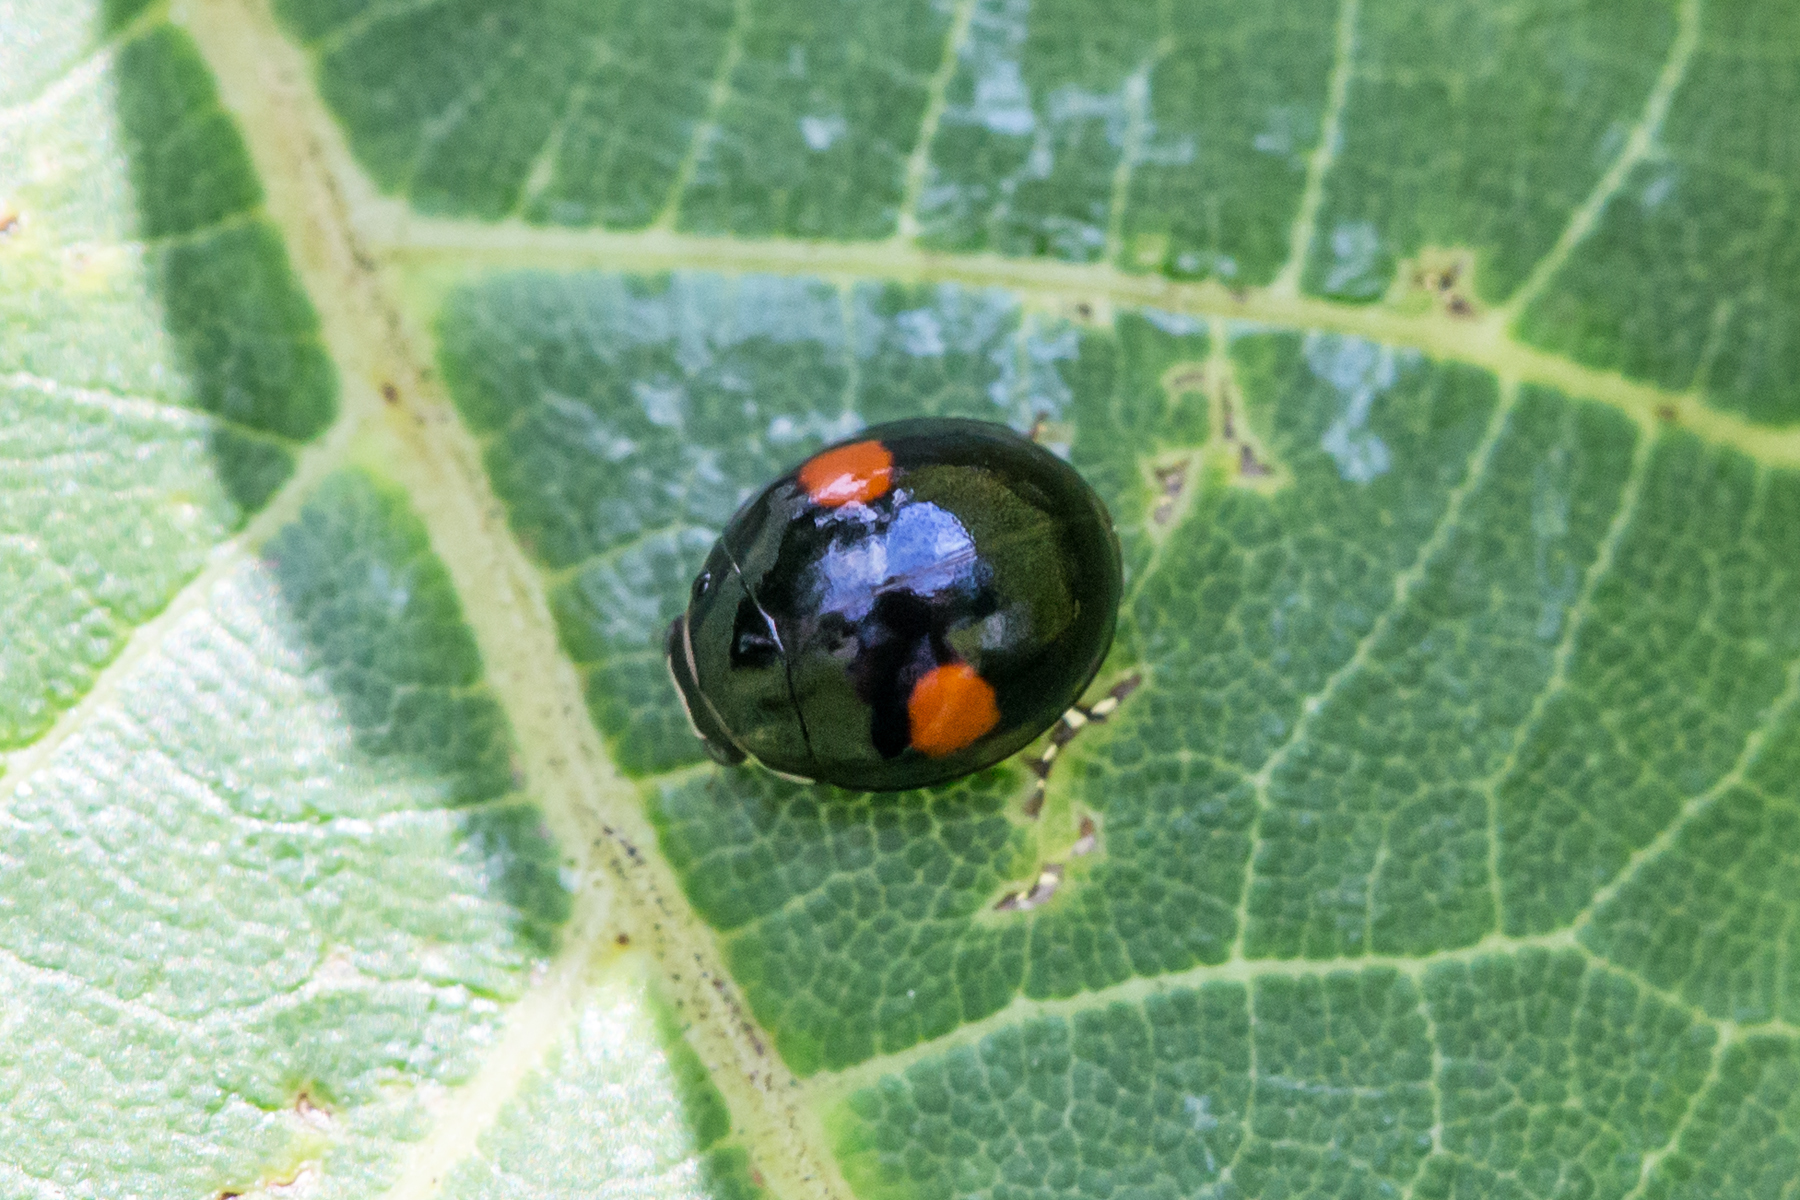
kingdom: Animalia
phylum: Arthropoda
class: Insecta
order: Coleoptera
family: Coccinellidae
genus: Hyperaspis
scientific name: Hyperaspis
